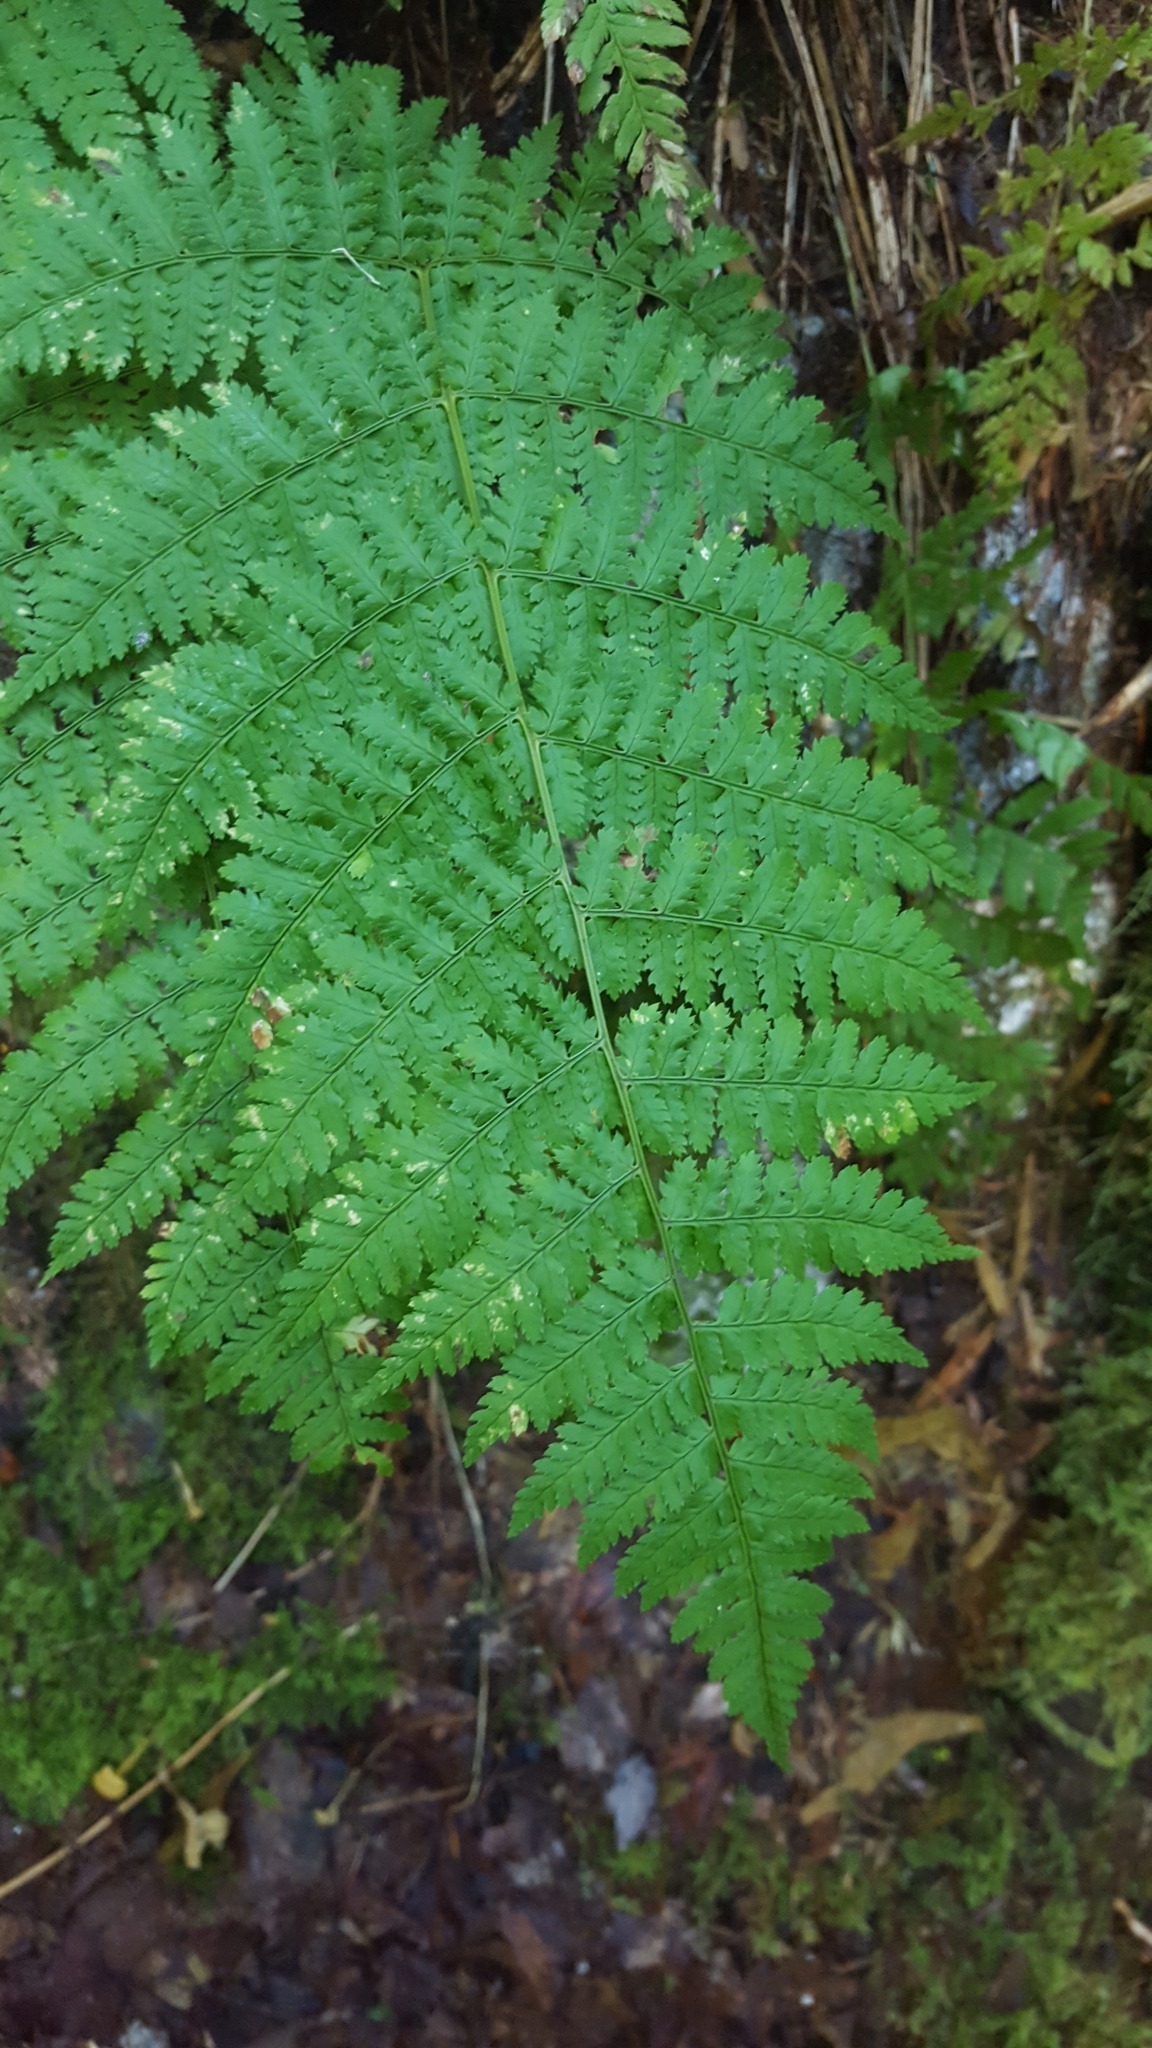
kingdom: Plantae
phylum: Tracheophyta
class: Polypodiopsida
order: Polypodiales
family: Dryopteridaceae
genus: Dryopteris
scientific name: Dryopteris intermedia
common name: Evergreen wood fern
